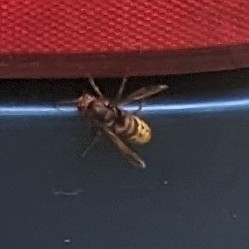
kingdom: Animalia
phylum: Arthropoda
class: Insecta
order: Hymenoptera
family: Vespidae
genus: Vespa
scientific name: Vespa crabro
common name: Hornet
